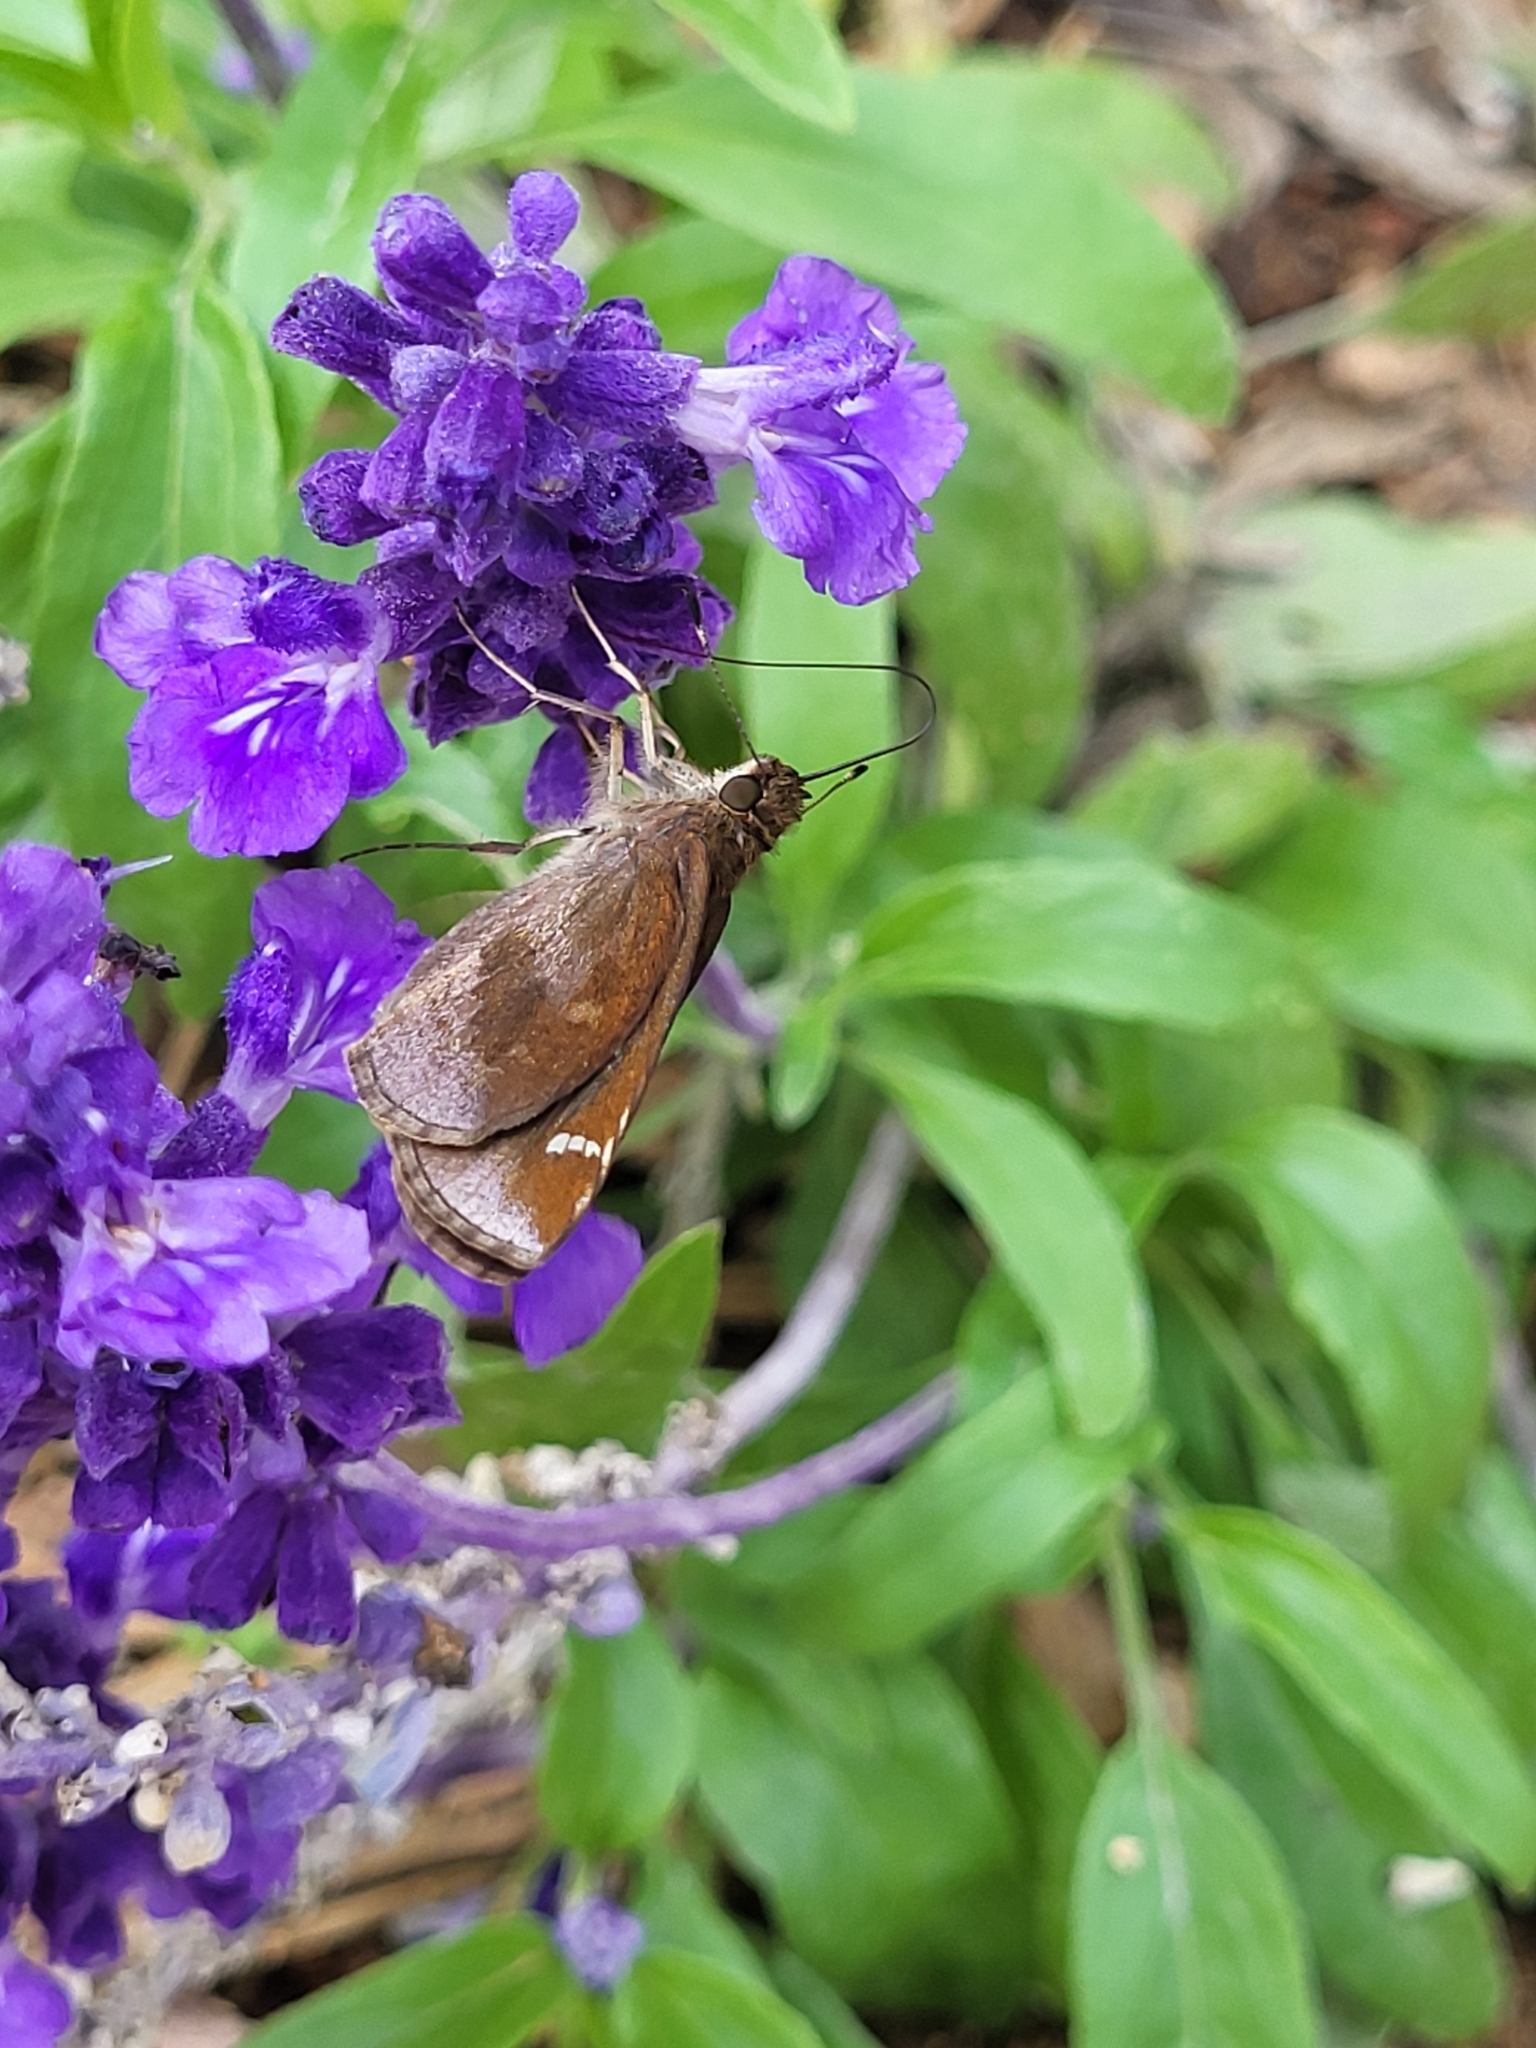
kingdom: Animalia
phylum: Arthropoda
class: Insecta
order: Lepidoptera
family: Hesperiidae
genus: Lerema
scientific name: Lerema accius
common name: Clouded skipper
